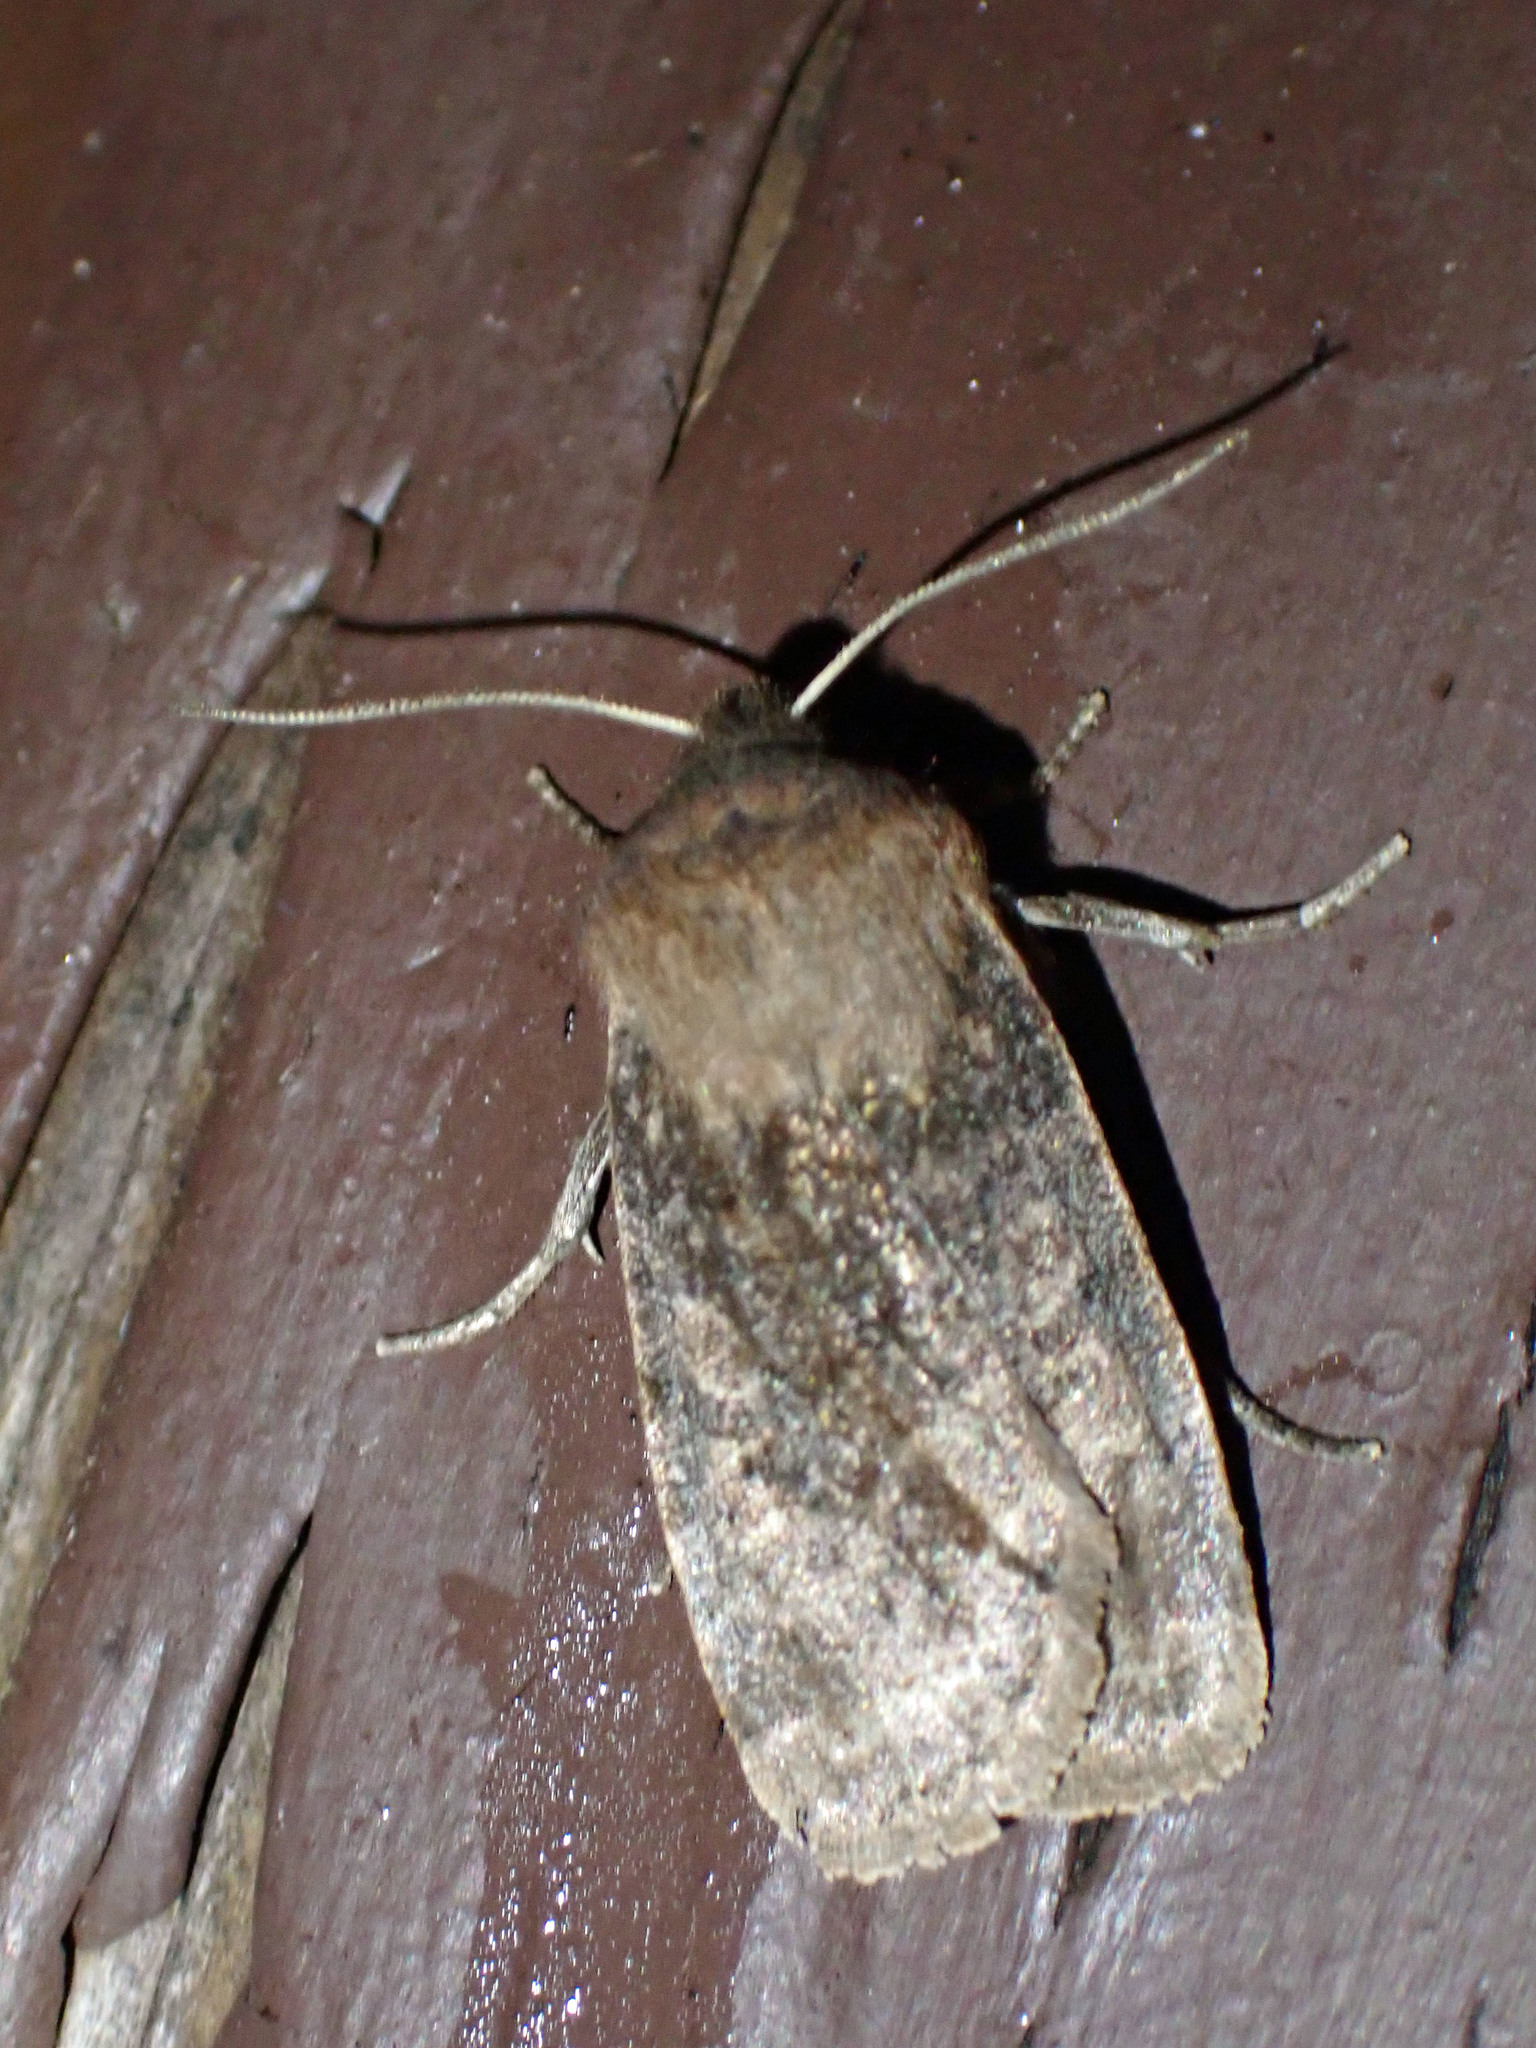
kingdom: Animalia
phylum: Arthropoda
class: Insecta
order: Lepidoptera
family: Noctuidae
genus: Homoglaea
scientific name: Homoglaea hircina
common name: Goat sallow
